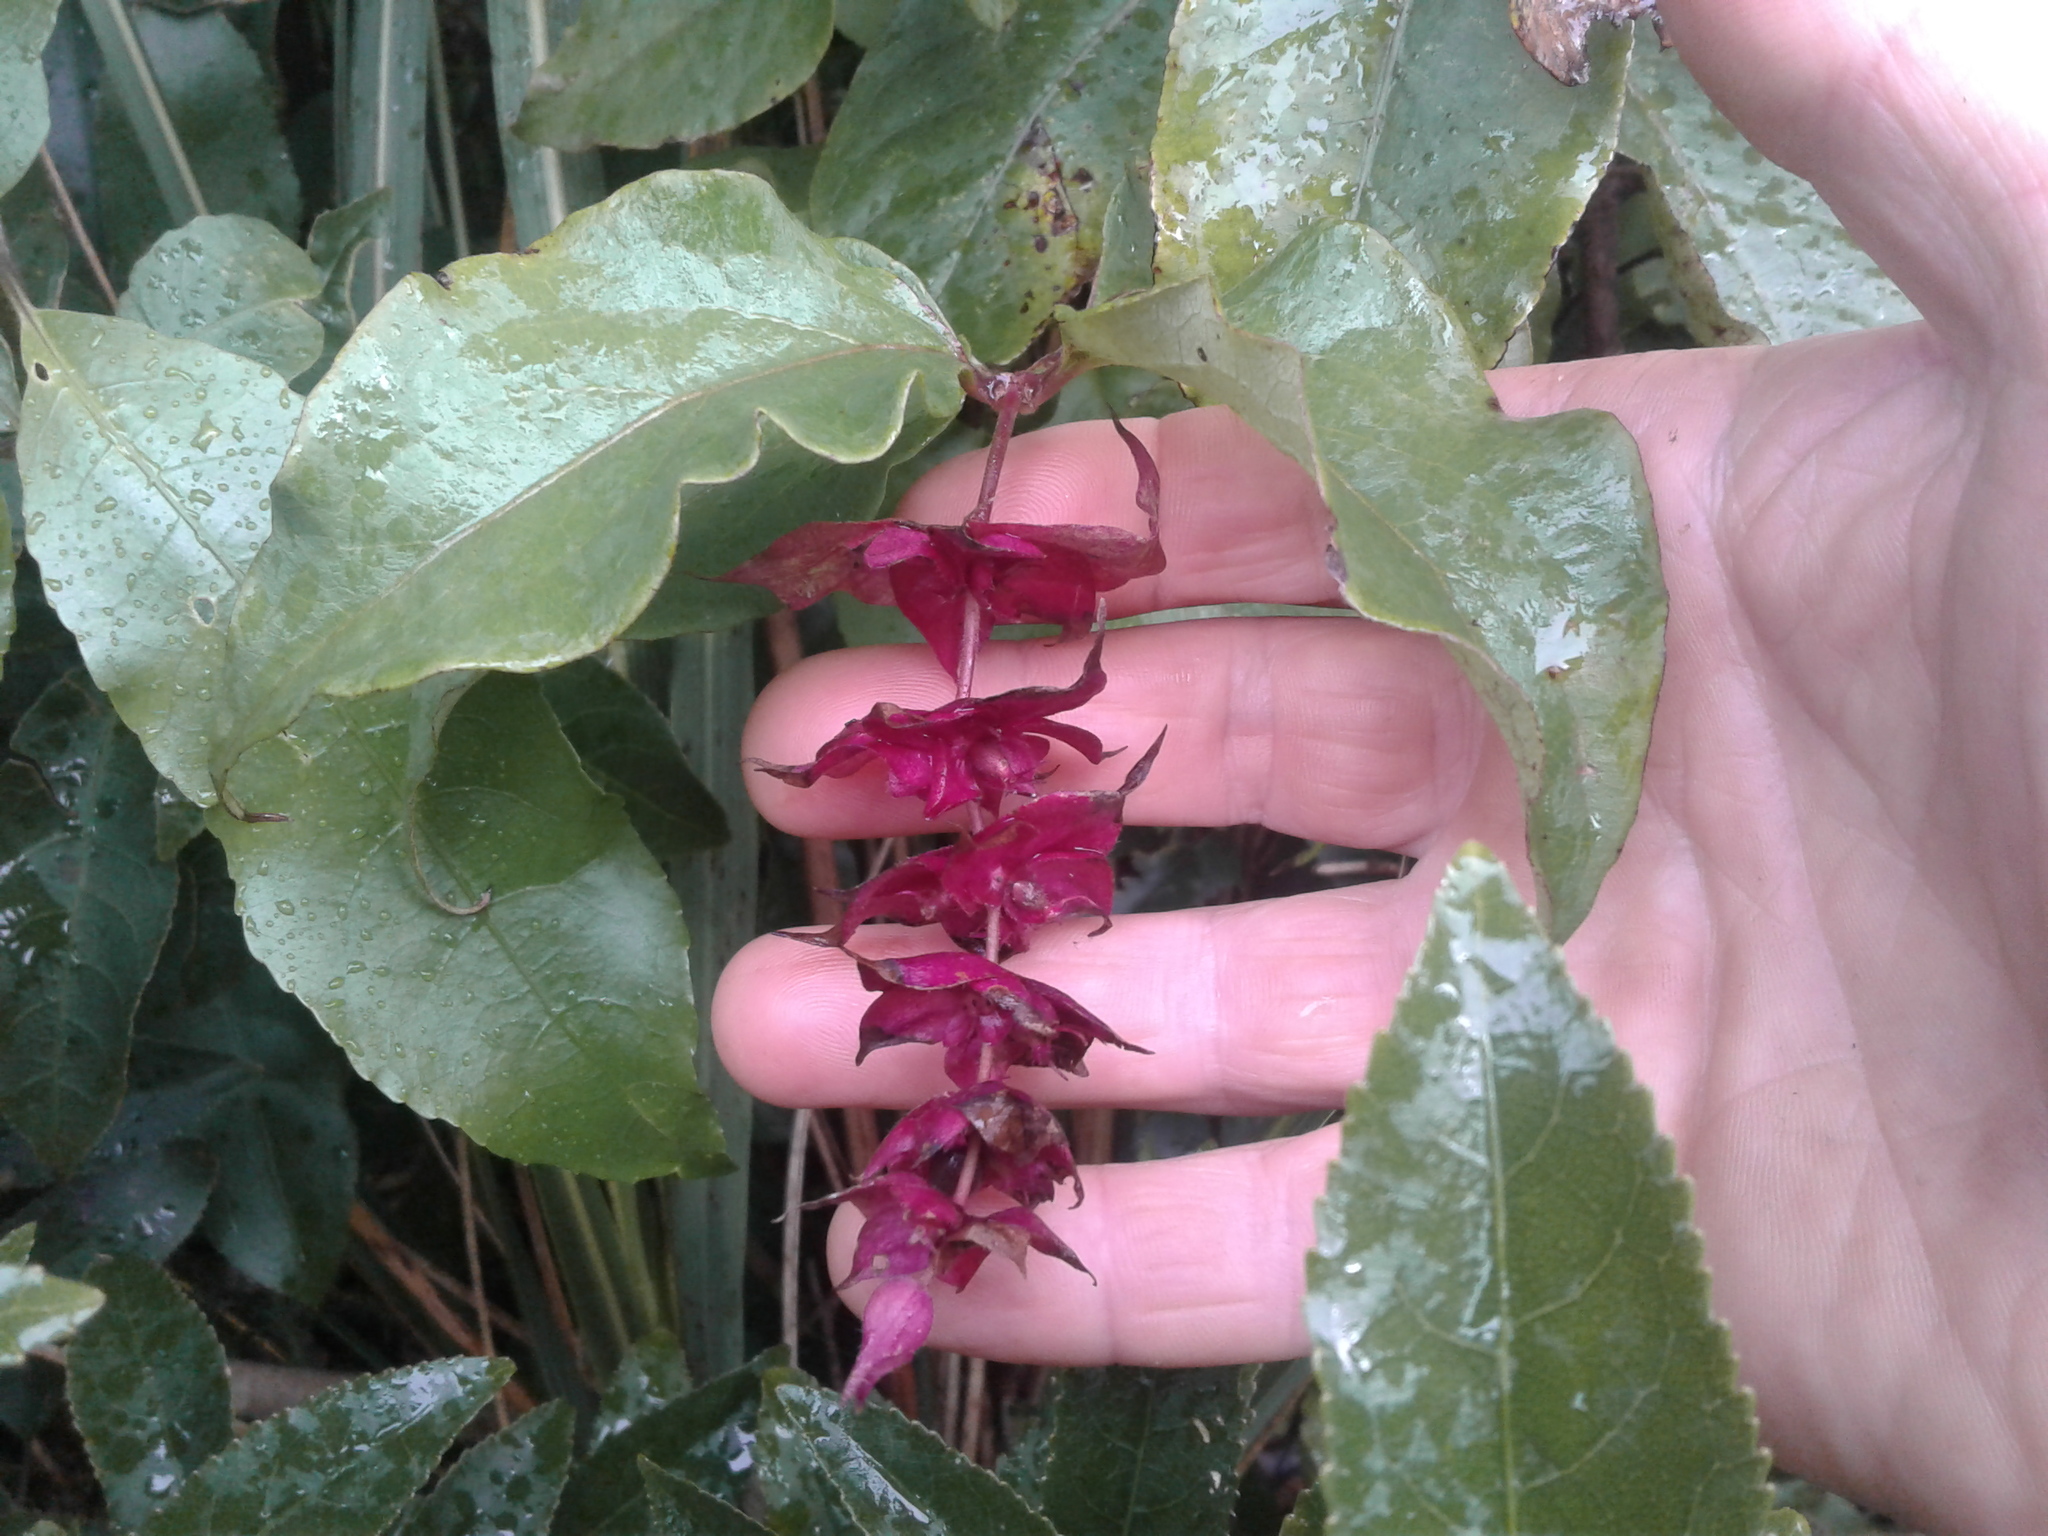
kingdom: Plantae
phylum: Tracheophyta
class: Magnoliopsida
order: Dipsacales
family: Caprifoliaceae
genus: Leycesteria
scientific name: Leycesteria formosa
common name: Himalayan honeysuckle
